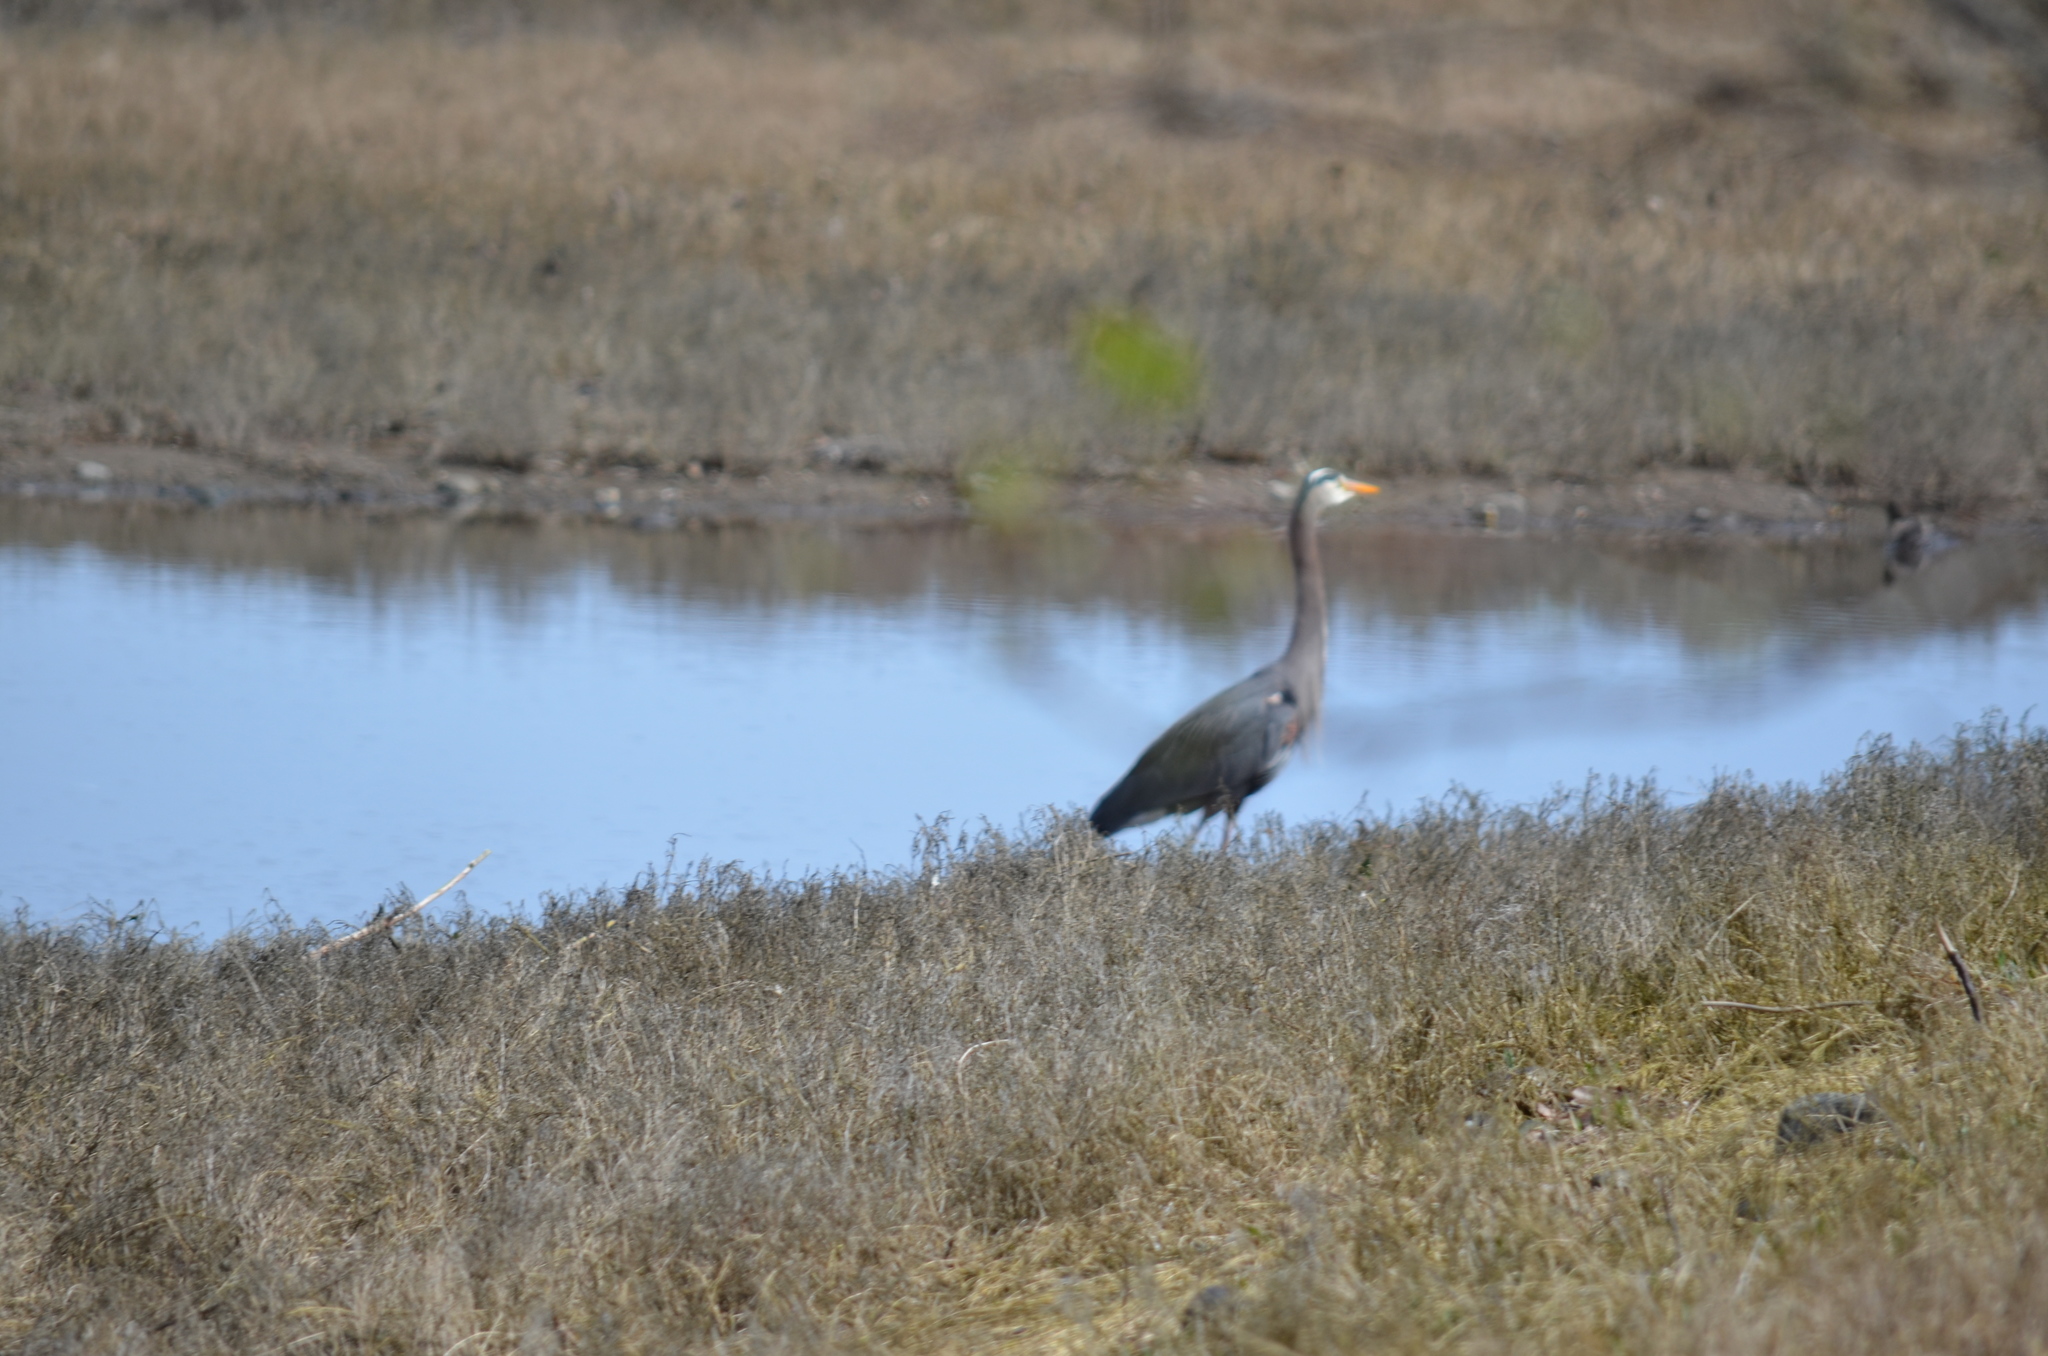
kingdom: Animalia
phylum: Chordata
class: Aves
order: Pelecaniformes
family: Ardeidae
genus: Ardea
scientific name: Ardea herodias
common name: Great blue heron
